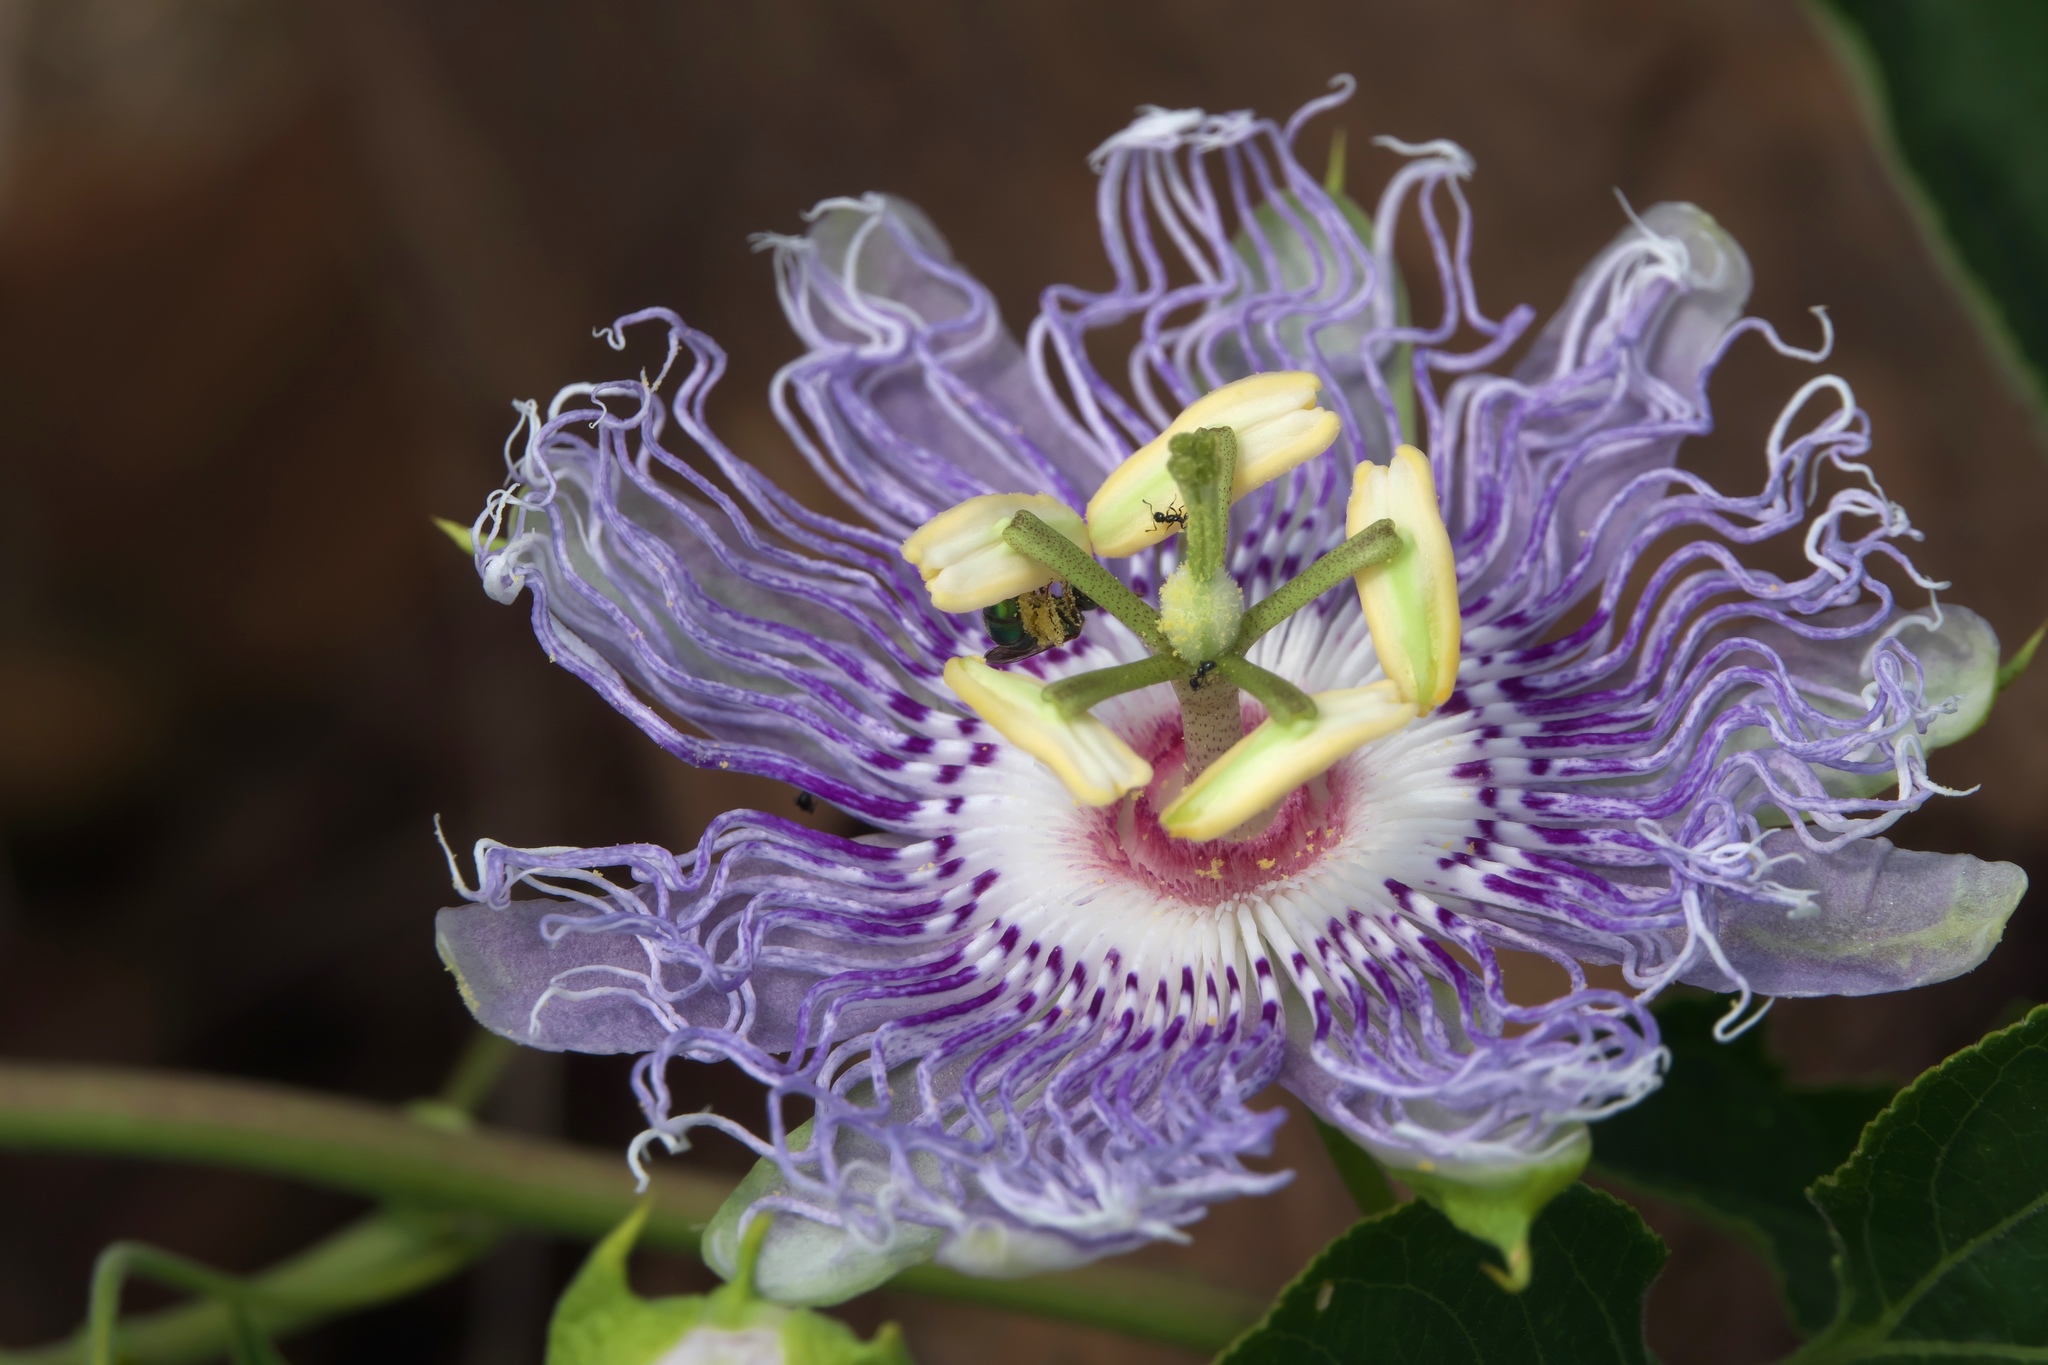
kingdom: Plantae
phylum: Tracheophyta
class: Magnoliopsida
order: Malpighiales
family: Passifloraceae
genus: Passiflora
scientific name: Passiflora incarnata
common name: Apricot-vine
